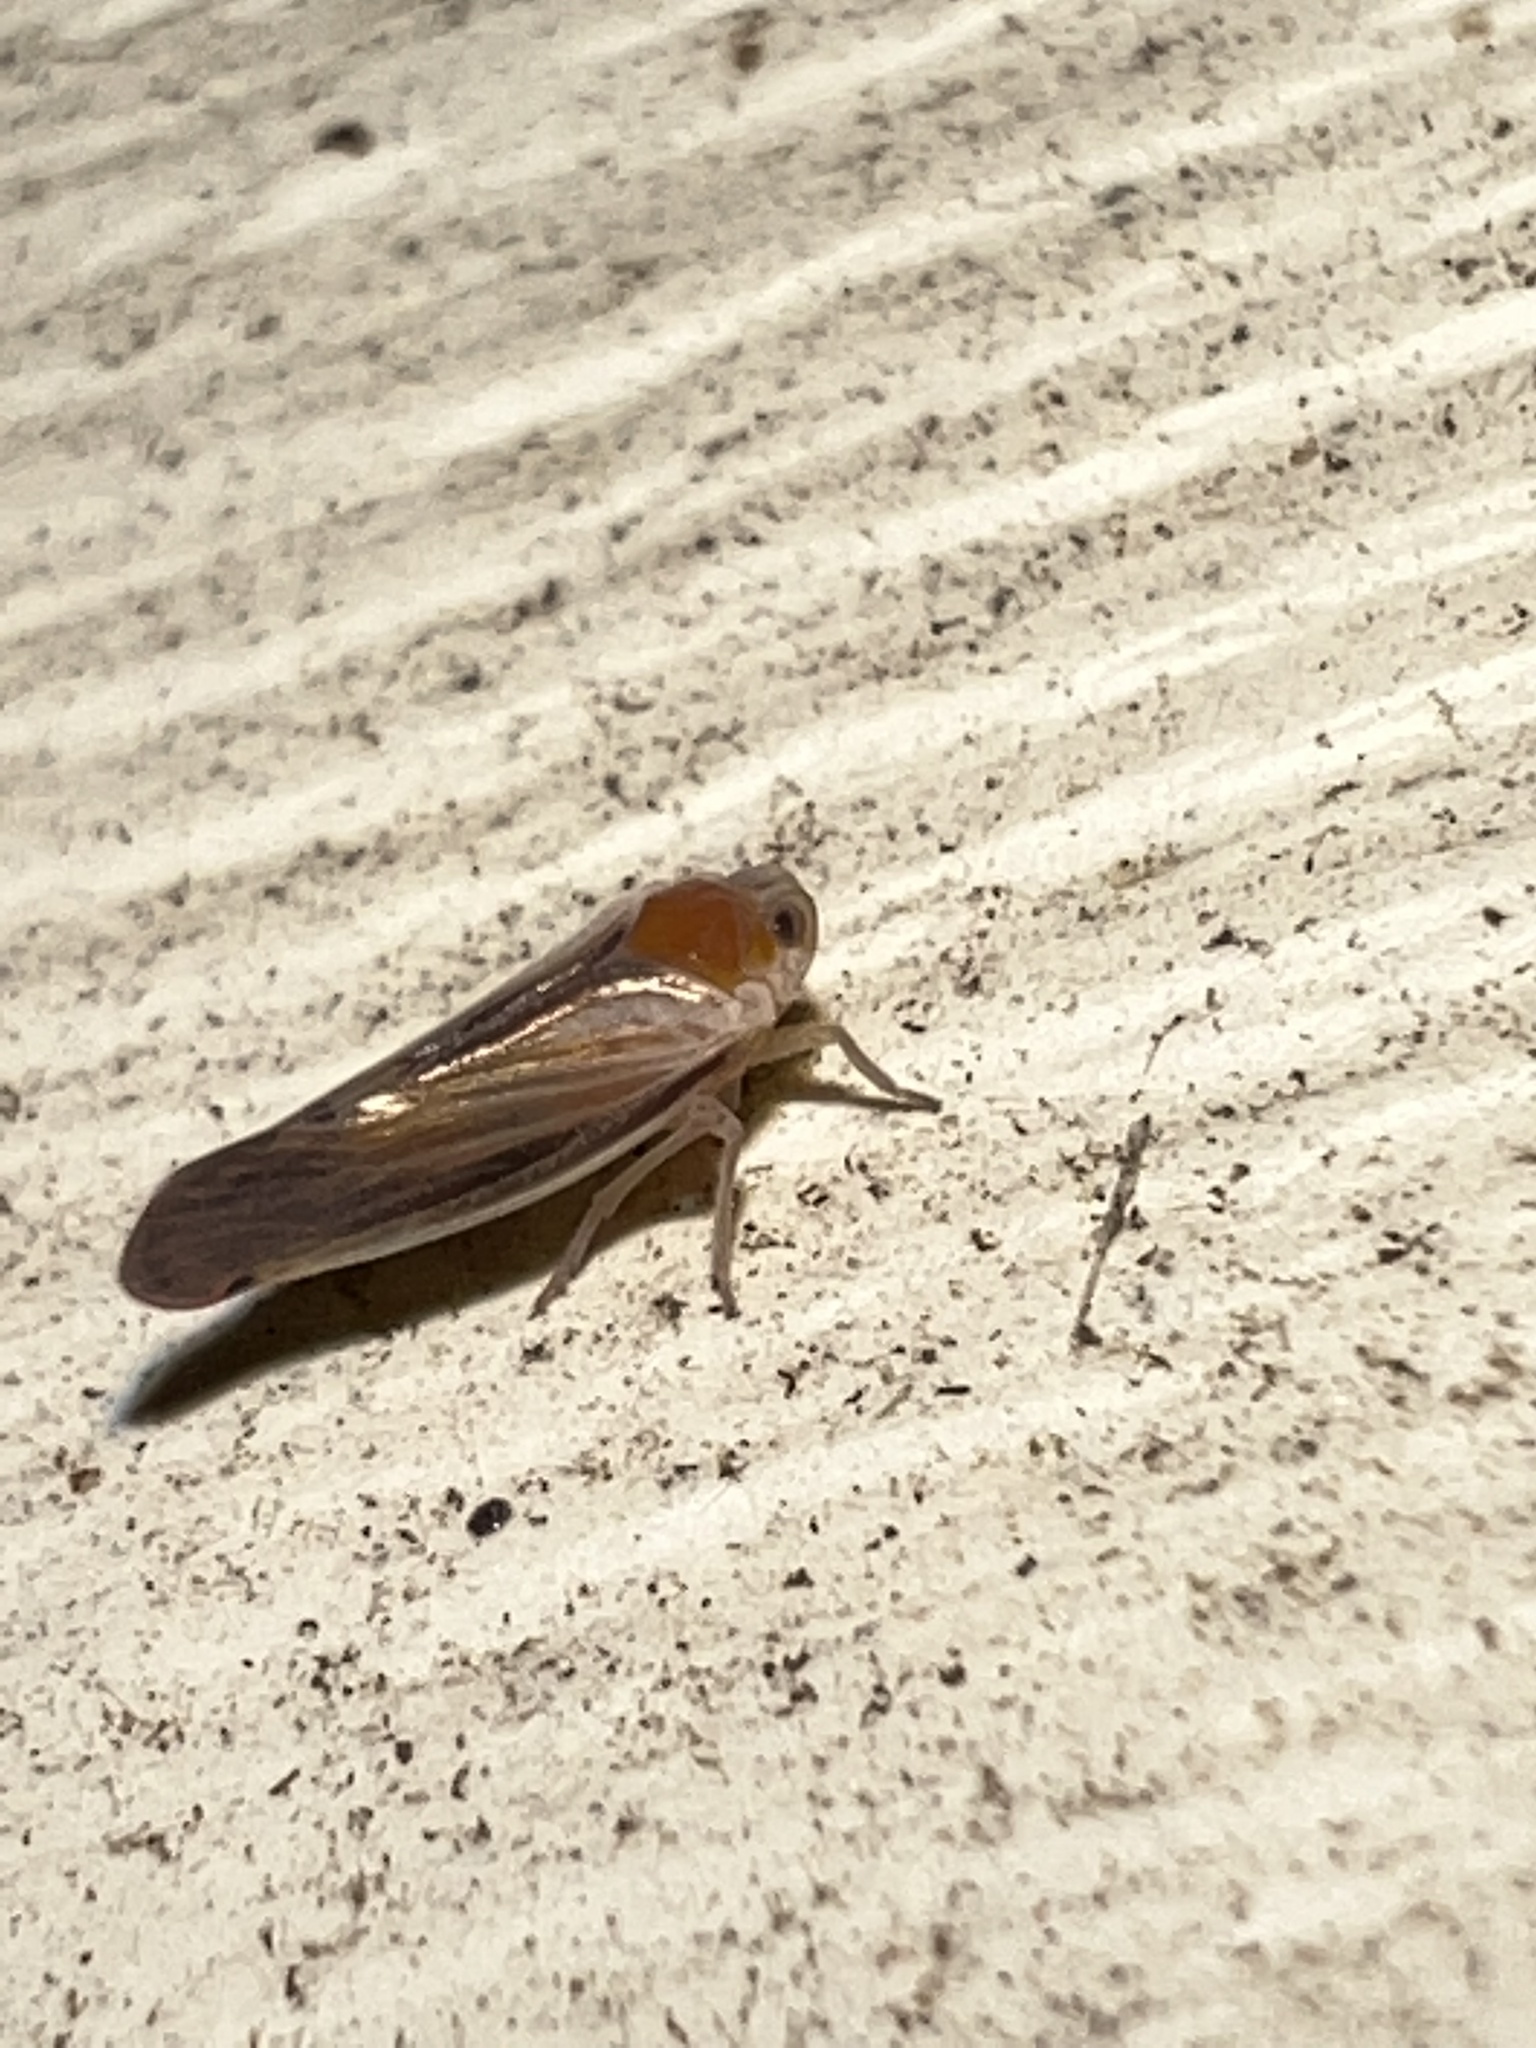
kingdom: Animalia
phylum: Arthropoda
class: Insecta
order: Hemiptera
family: Derbidae
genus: Omolicna
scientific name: Omolicna uhleri
